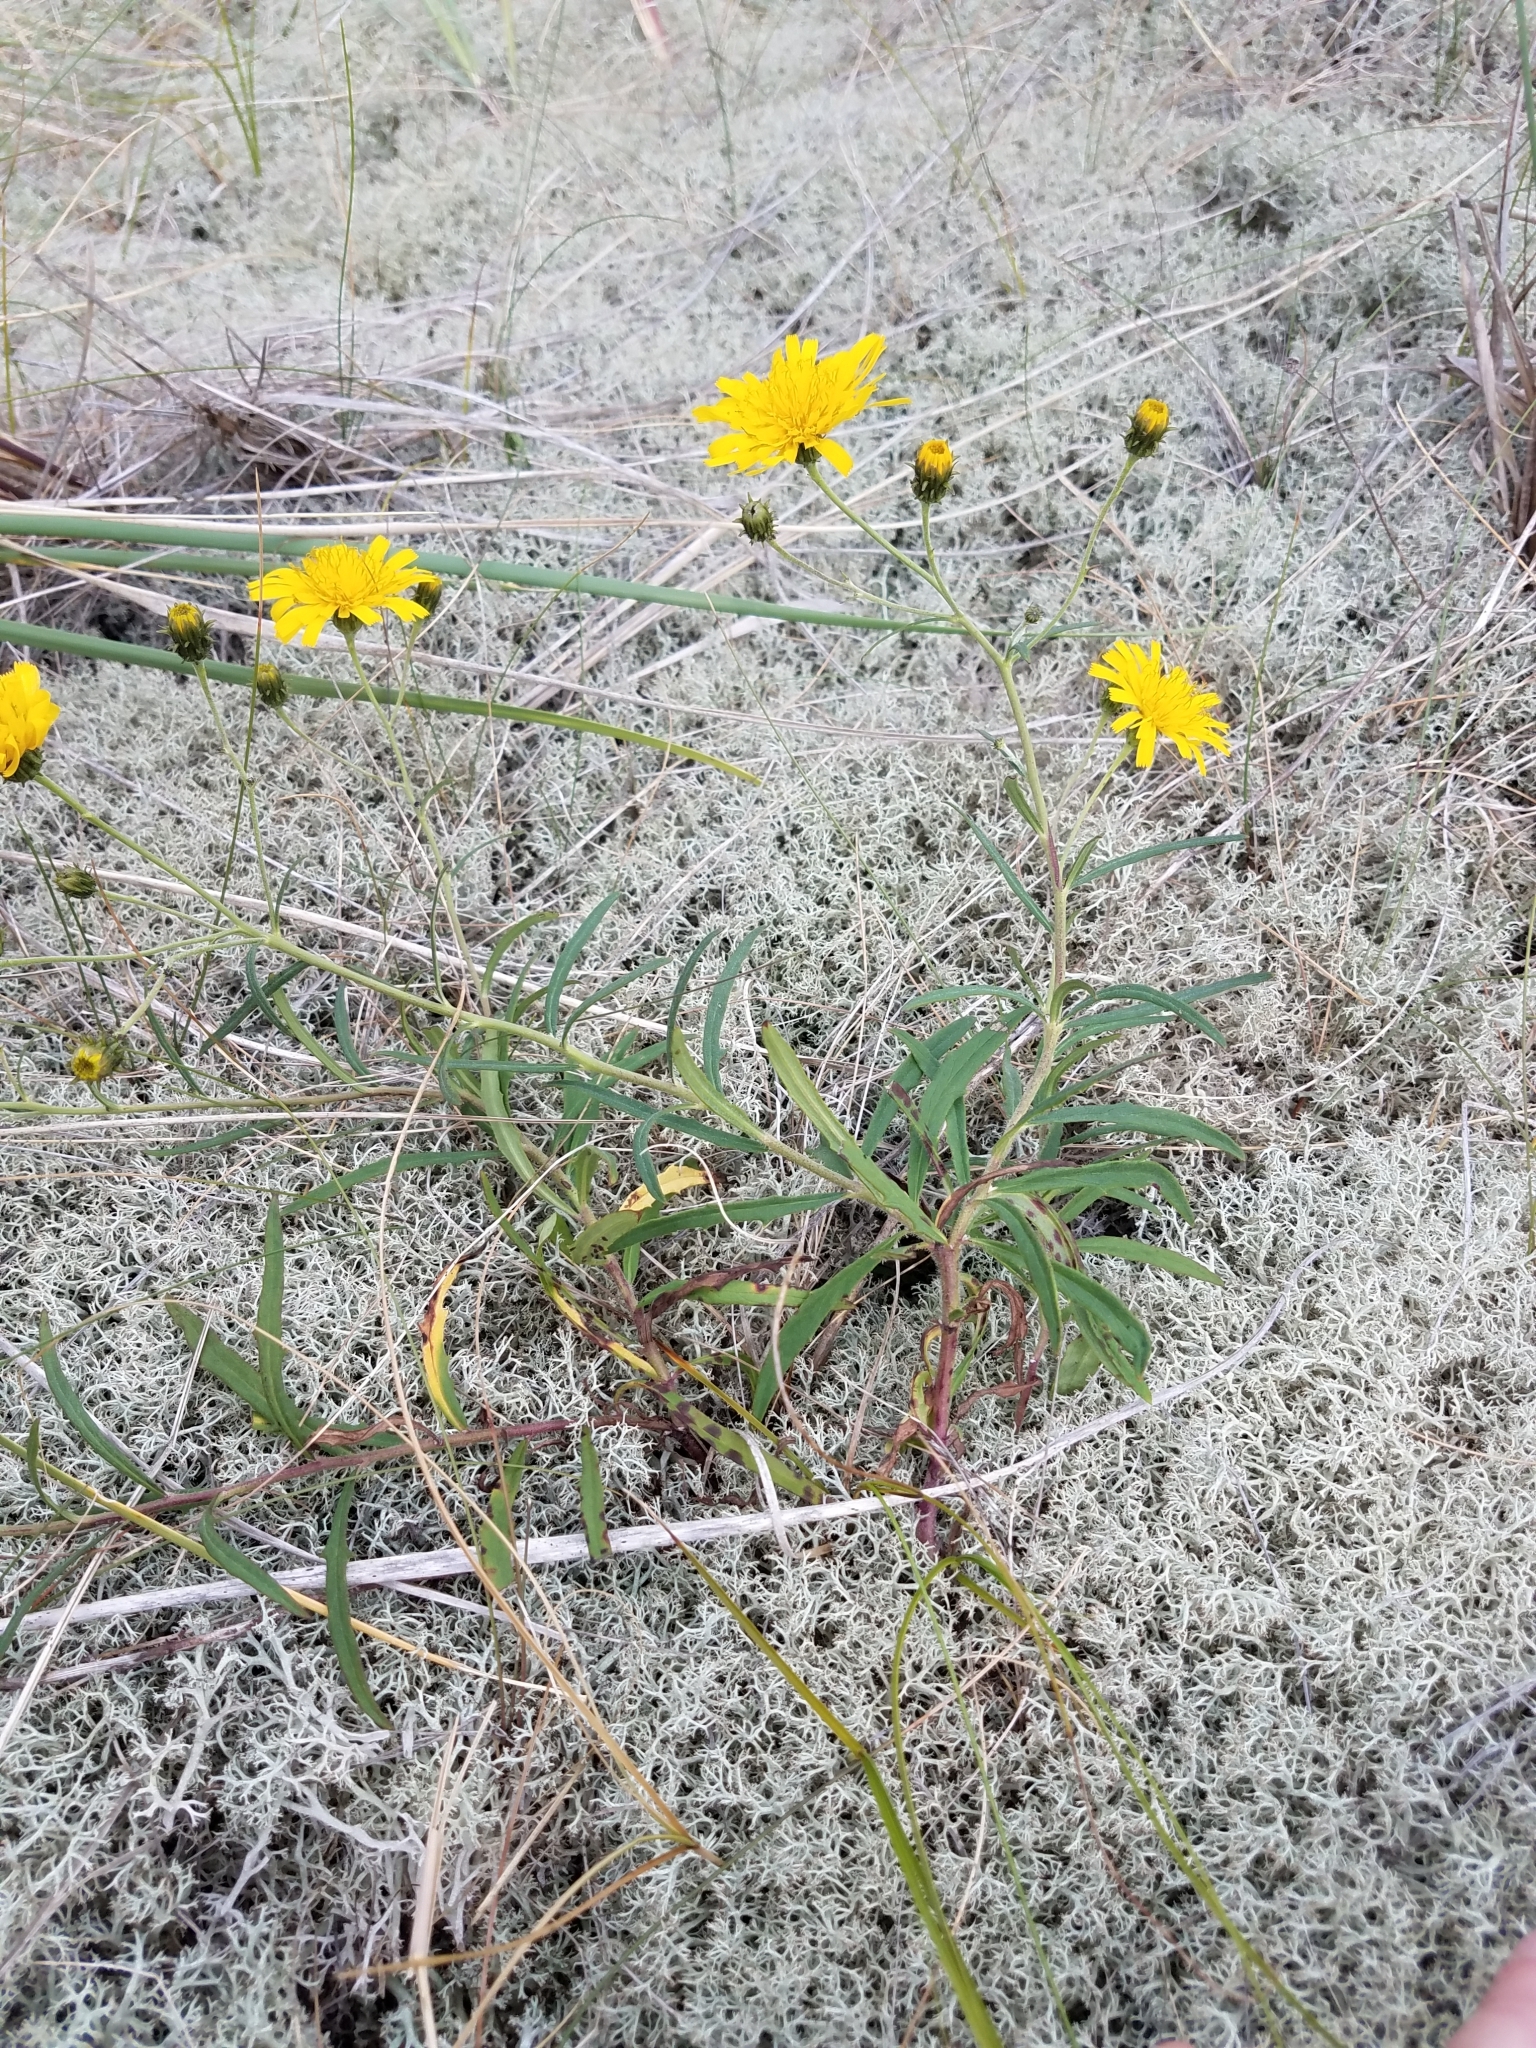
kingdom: Plantae
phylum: Tracheophyta
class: Magnoliopsida
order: Asterales
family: Asteraceae
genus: Hieracium
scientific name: Hieracium umbellatum
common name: Northern hawkweed
